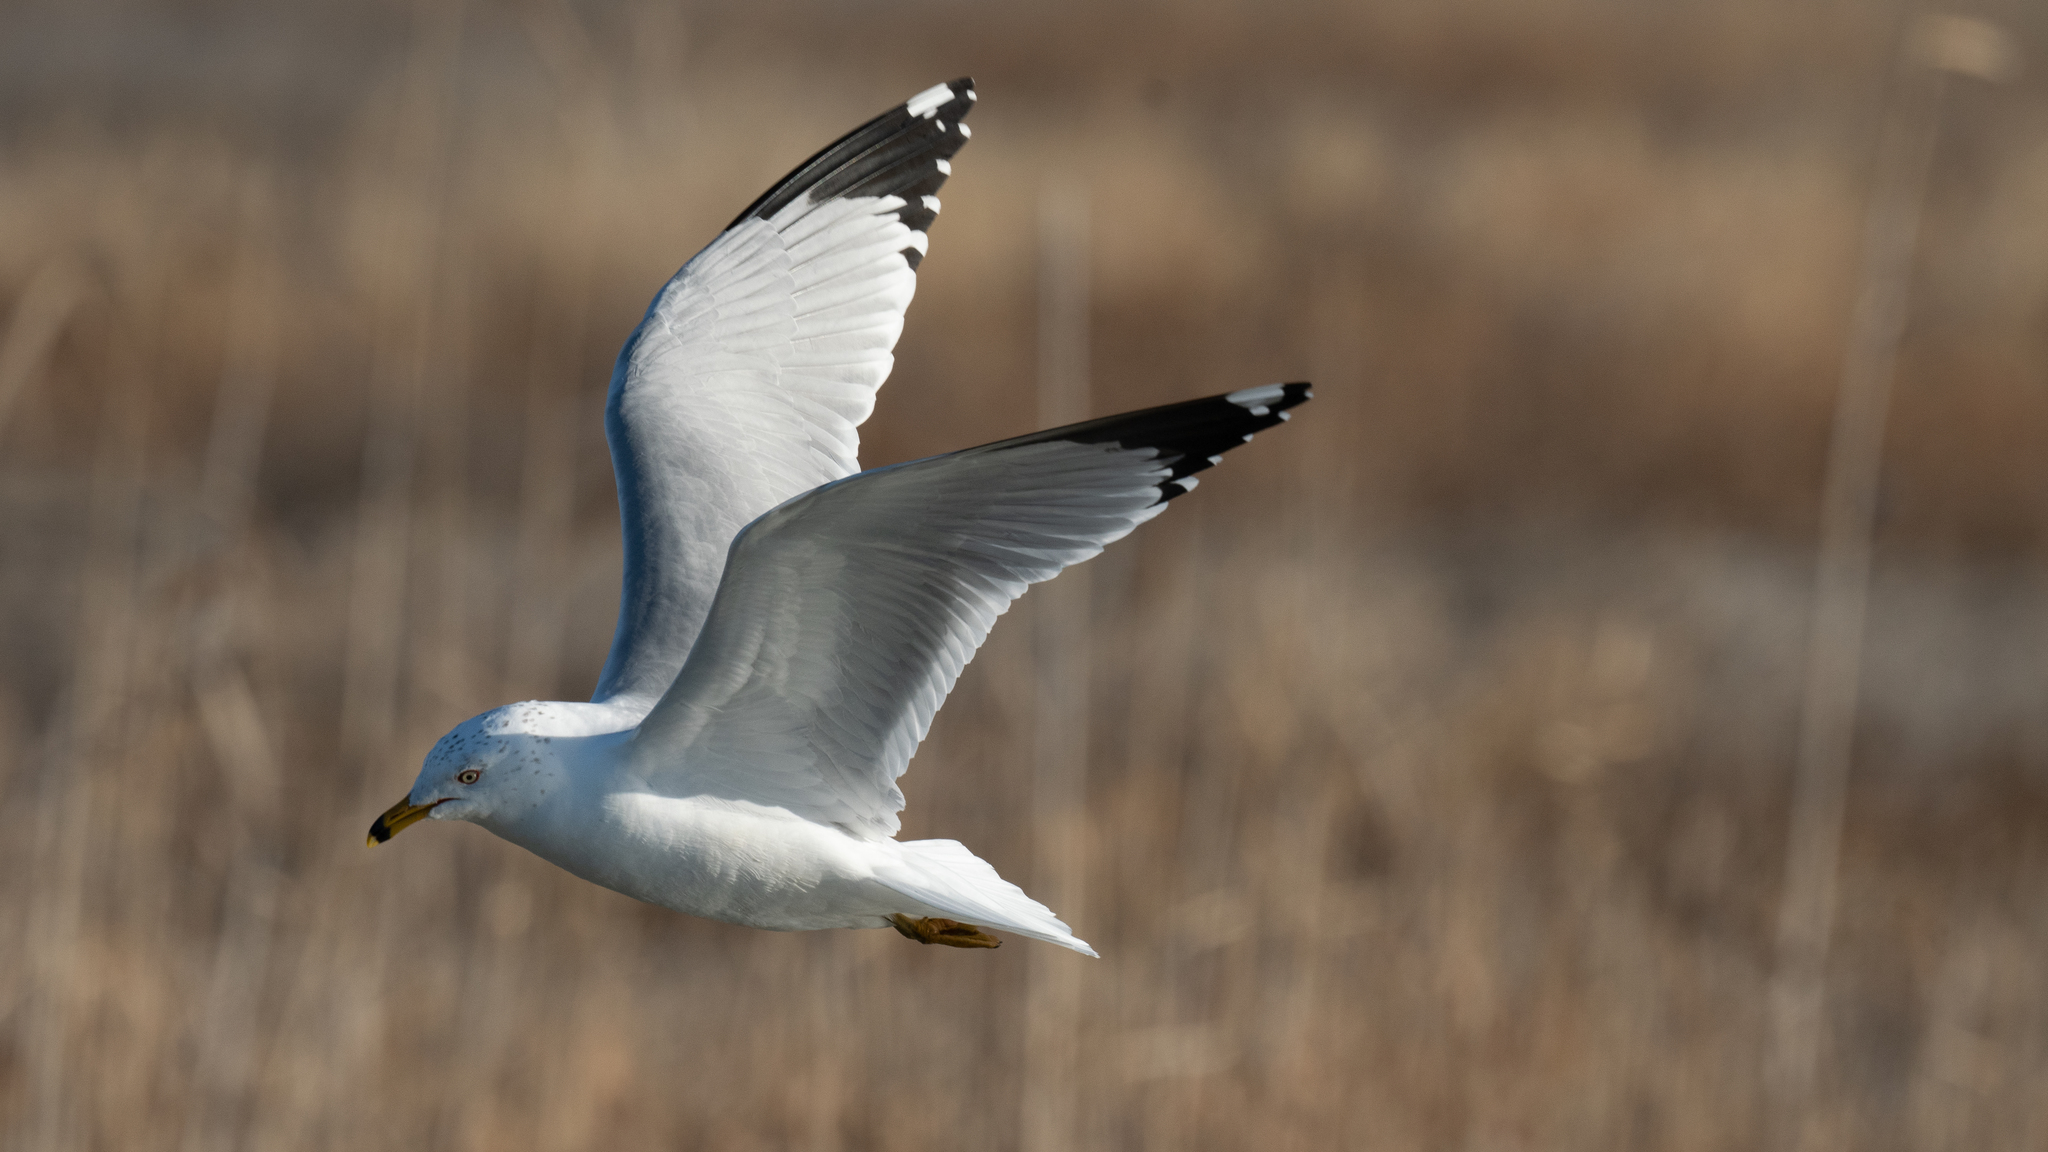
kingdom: Animalia
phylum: Chordata
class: Aves
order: Charadriiformes
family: Laridae
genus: Larus
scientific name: Larus delawarensis
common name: Ring-billed gull
